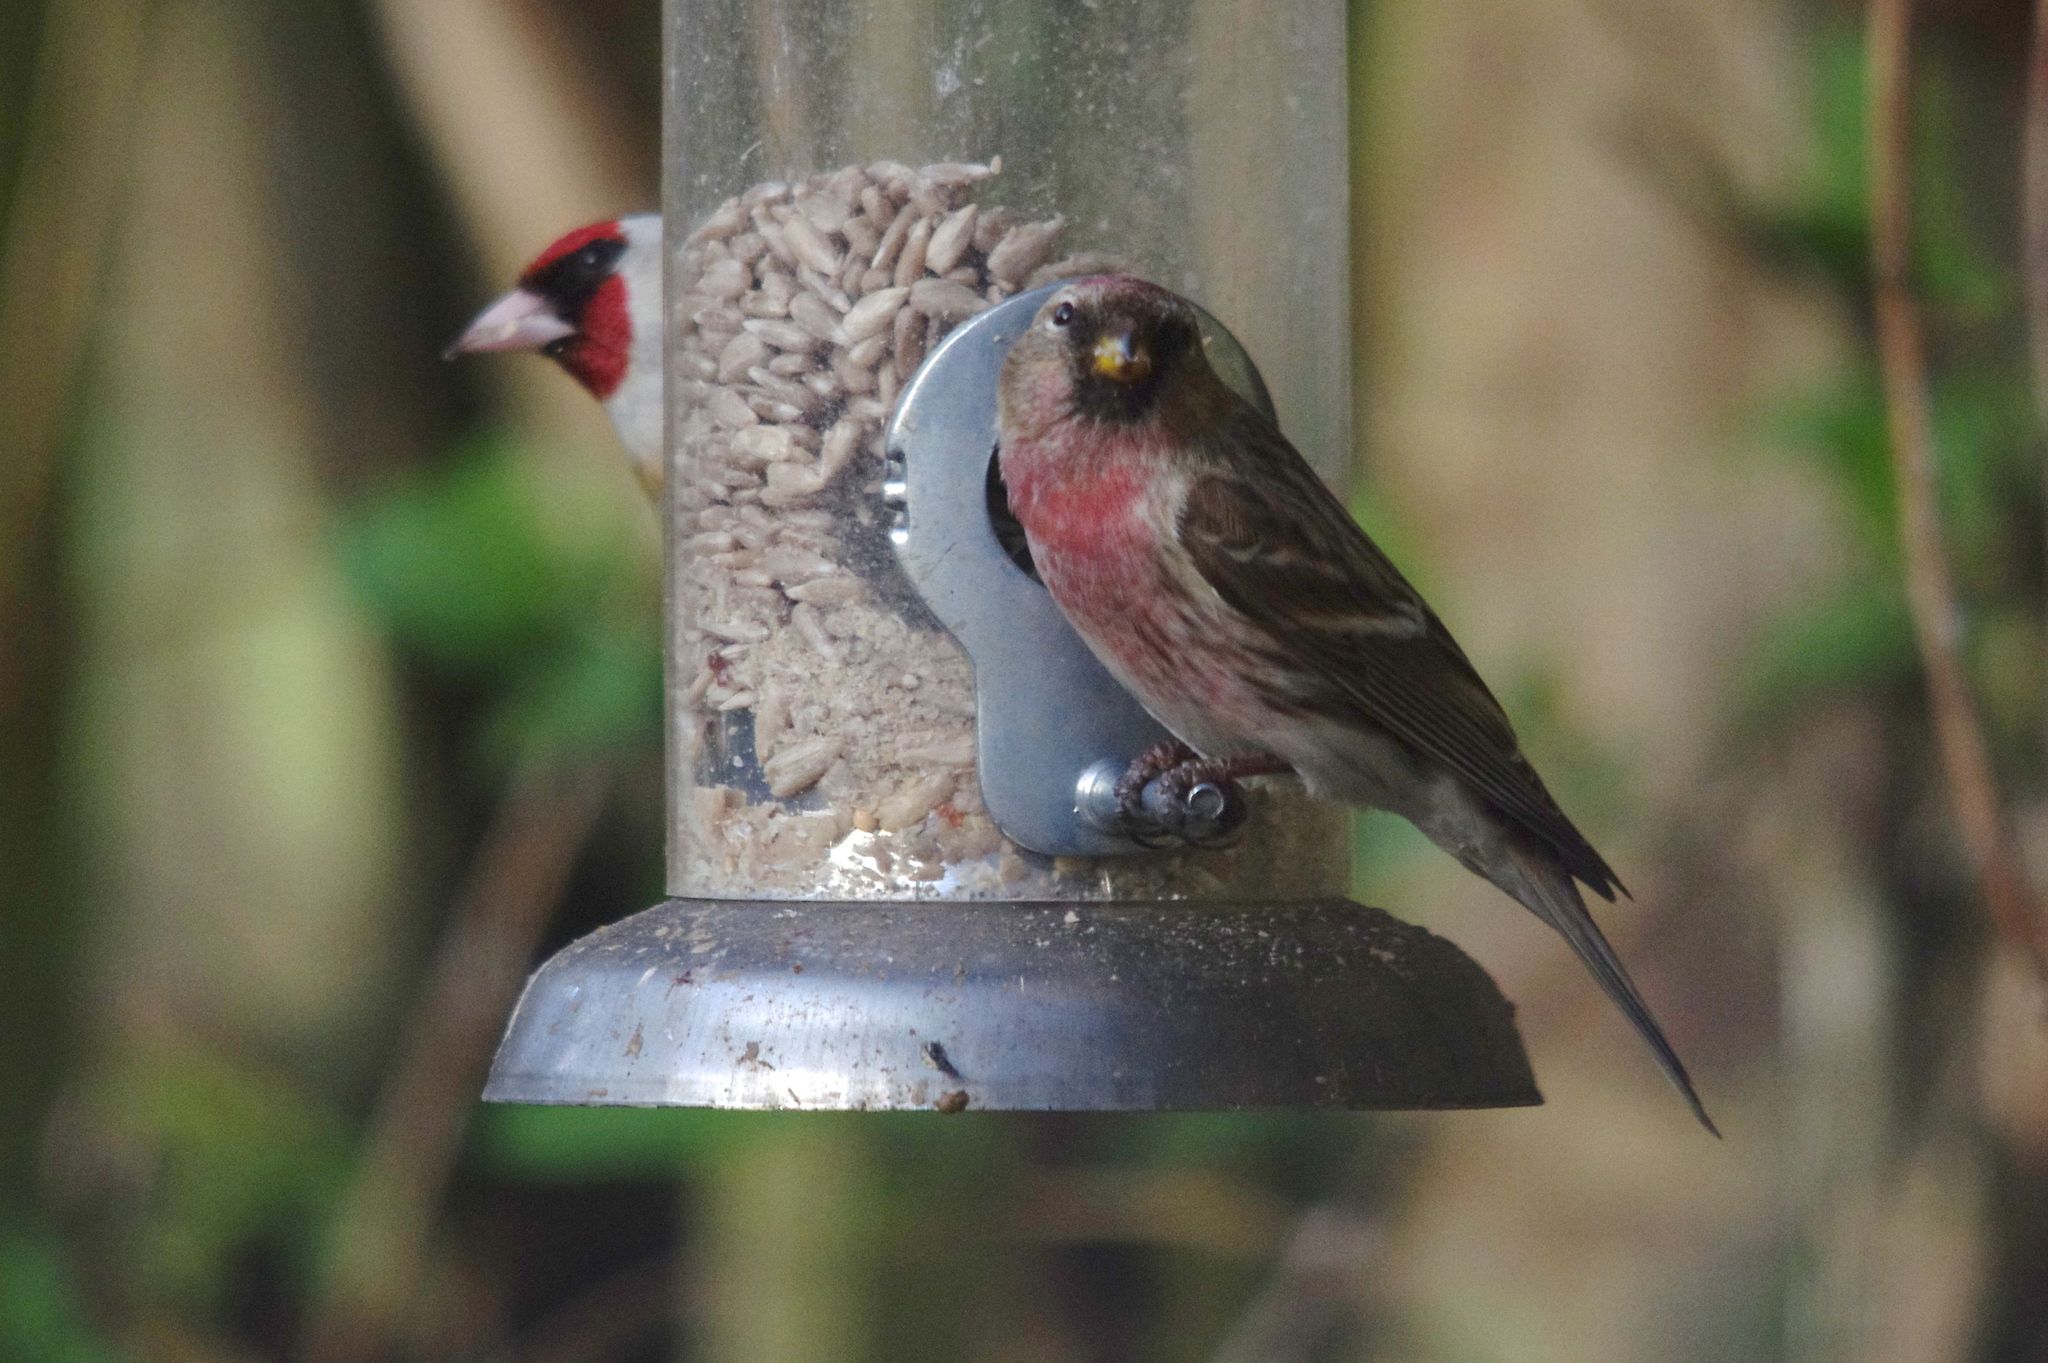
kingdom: Animalia
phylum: Chordata
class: Aves
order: Passeriformes
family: Fringillidae
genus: Acanthis
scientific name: Acanthis flammea
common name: Common redpoll
